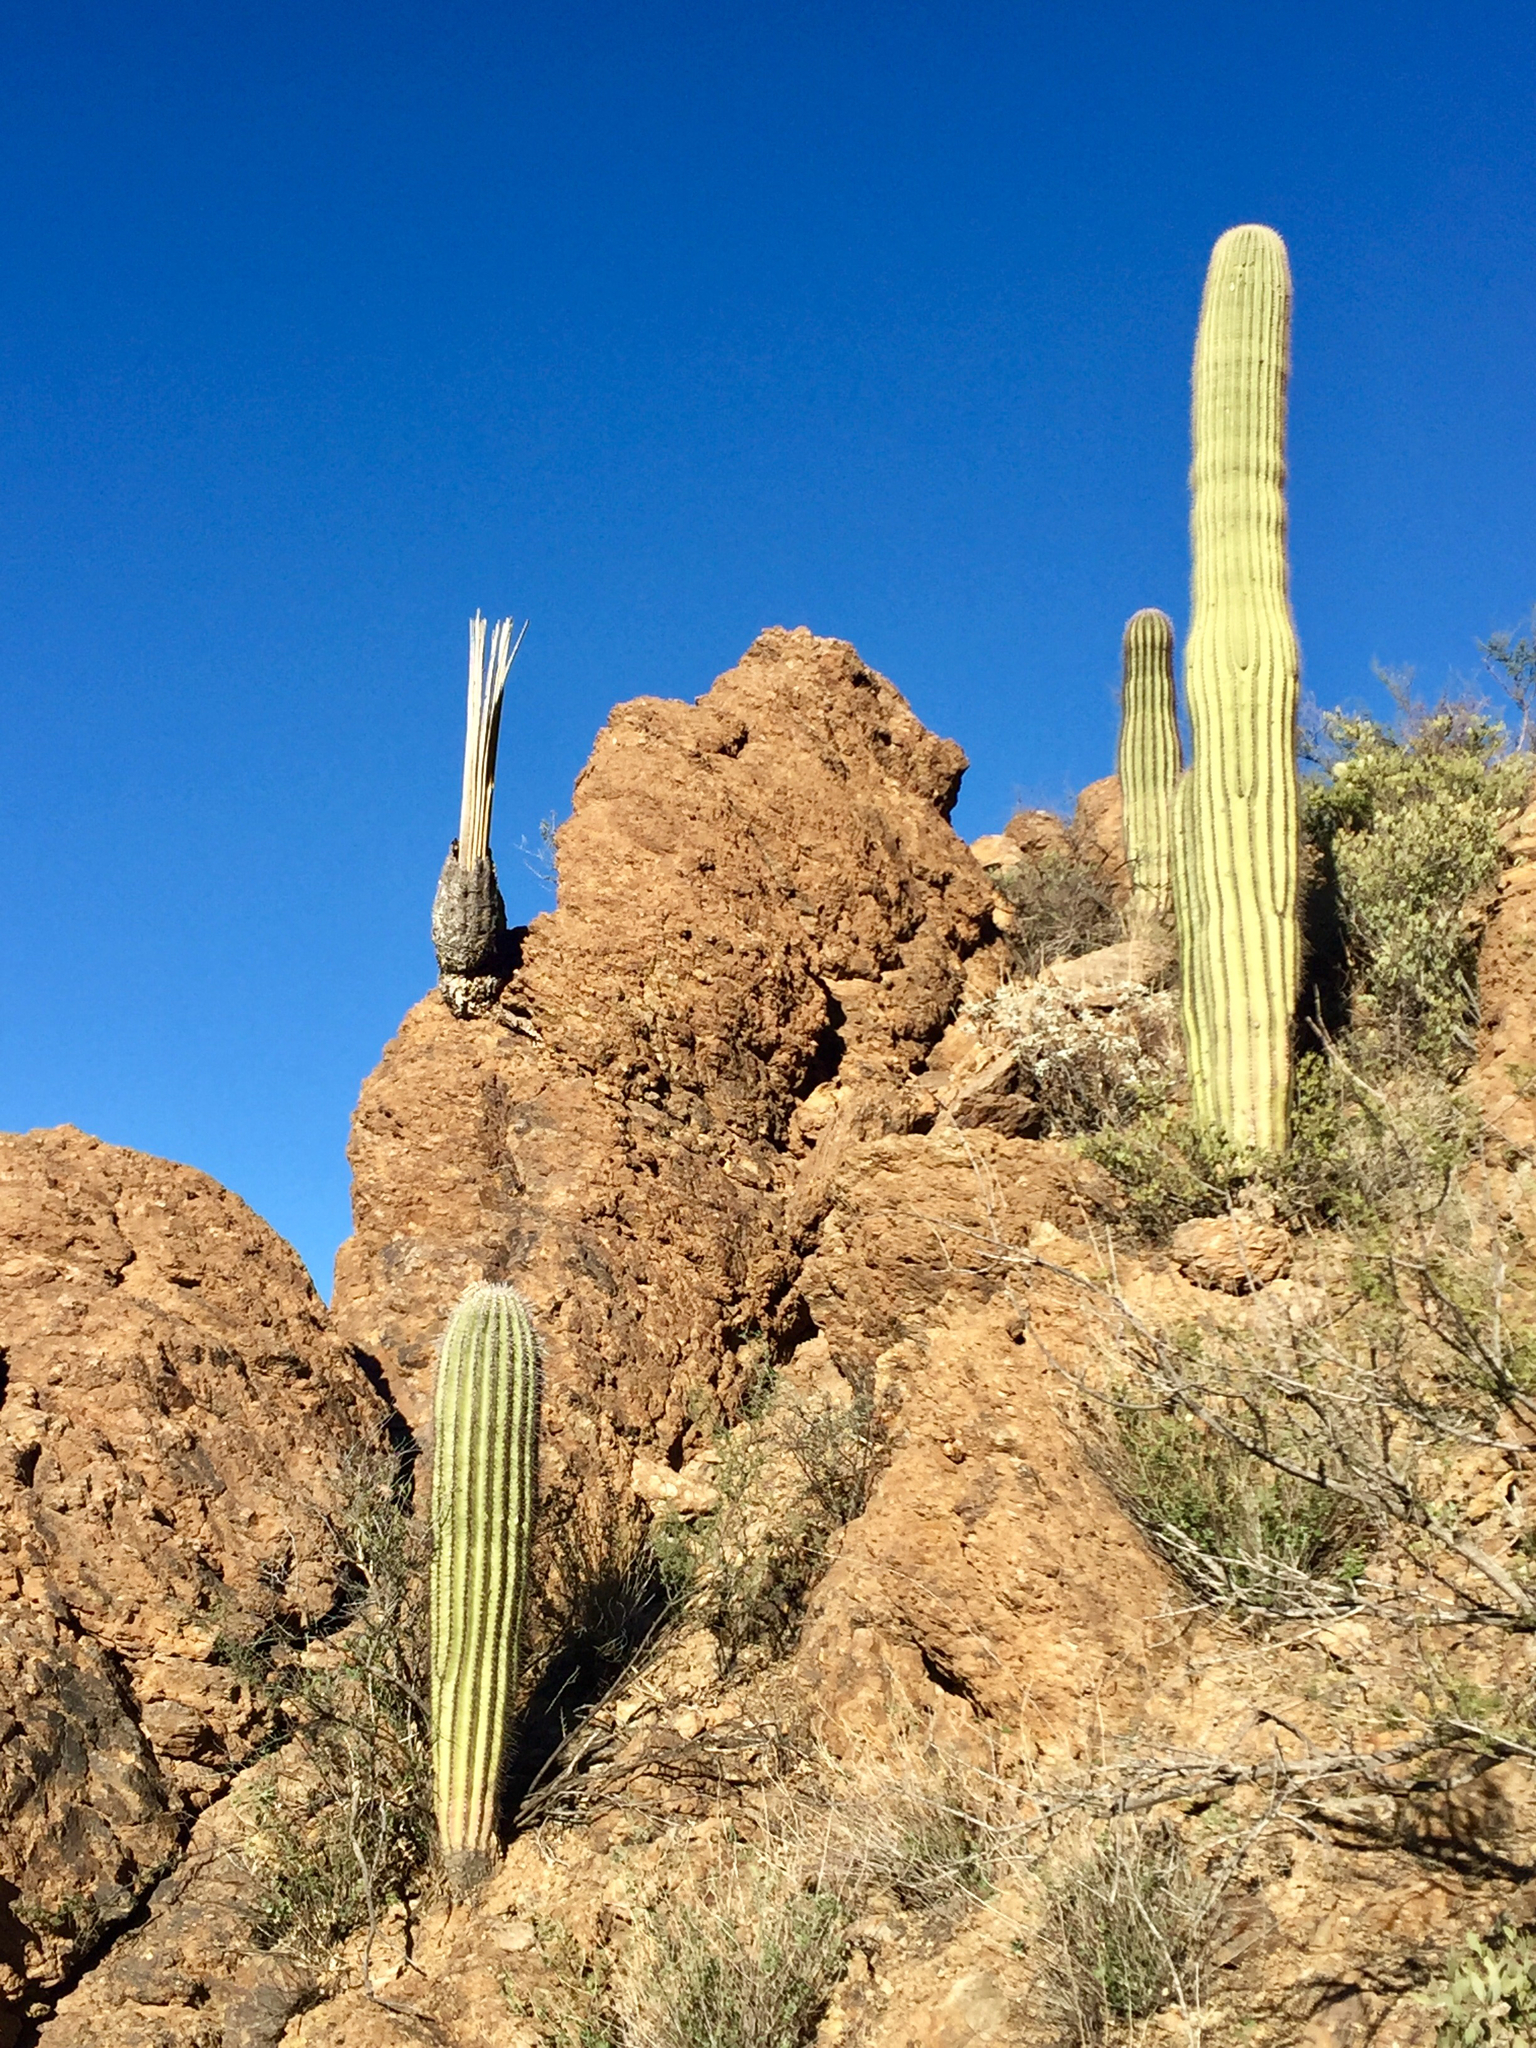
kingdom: Plantae
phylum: Tracheophyta
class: Magnoliopsida
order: Caryophyllales
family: Cactaceae
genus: Carnegiea
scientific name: Carnegiea gigantea
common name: Saguaro
